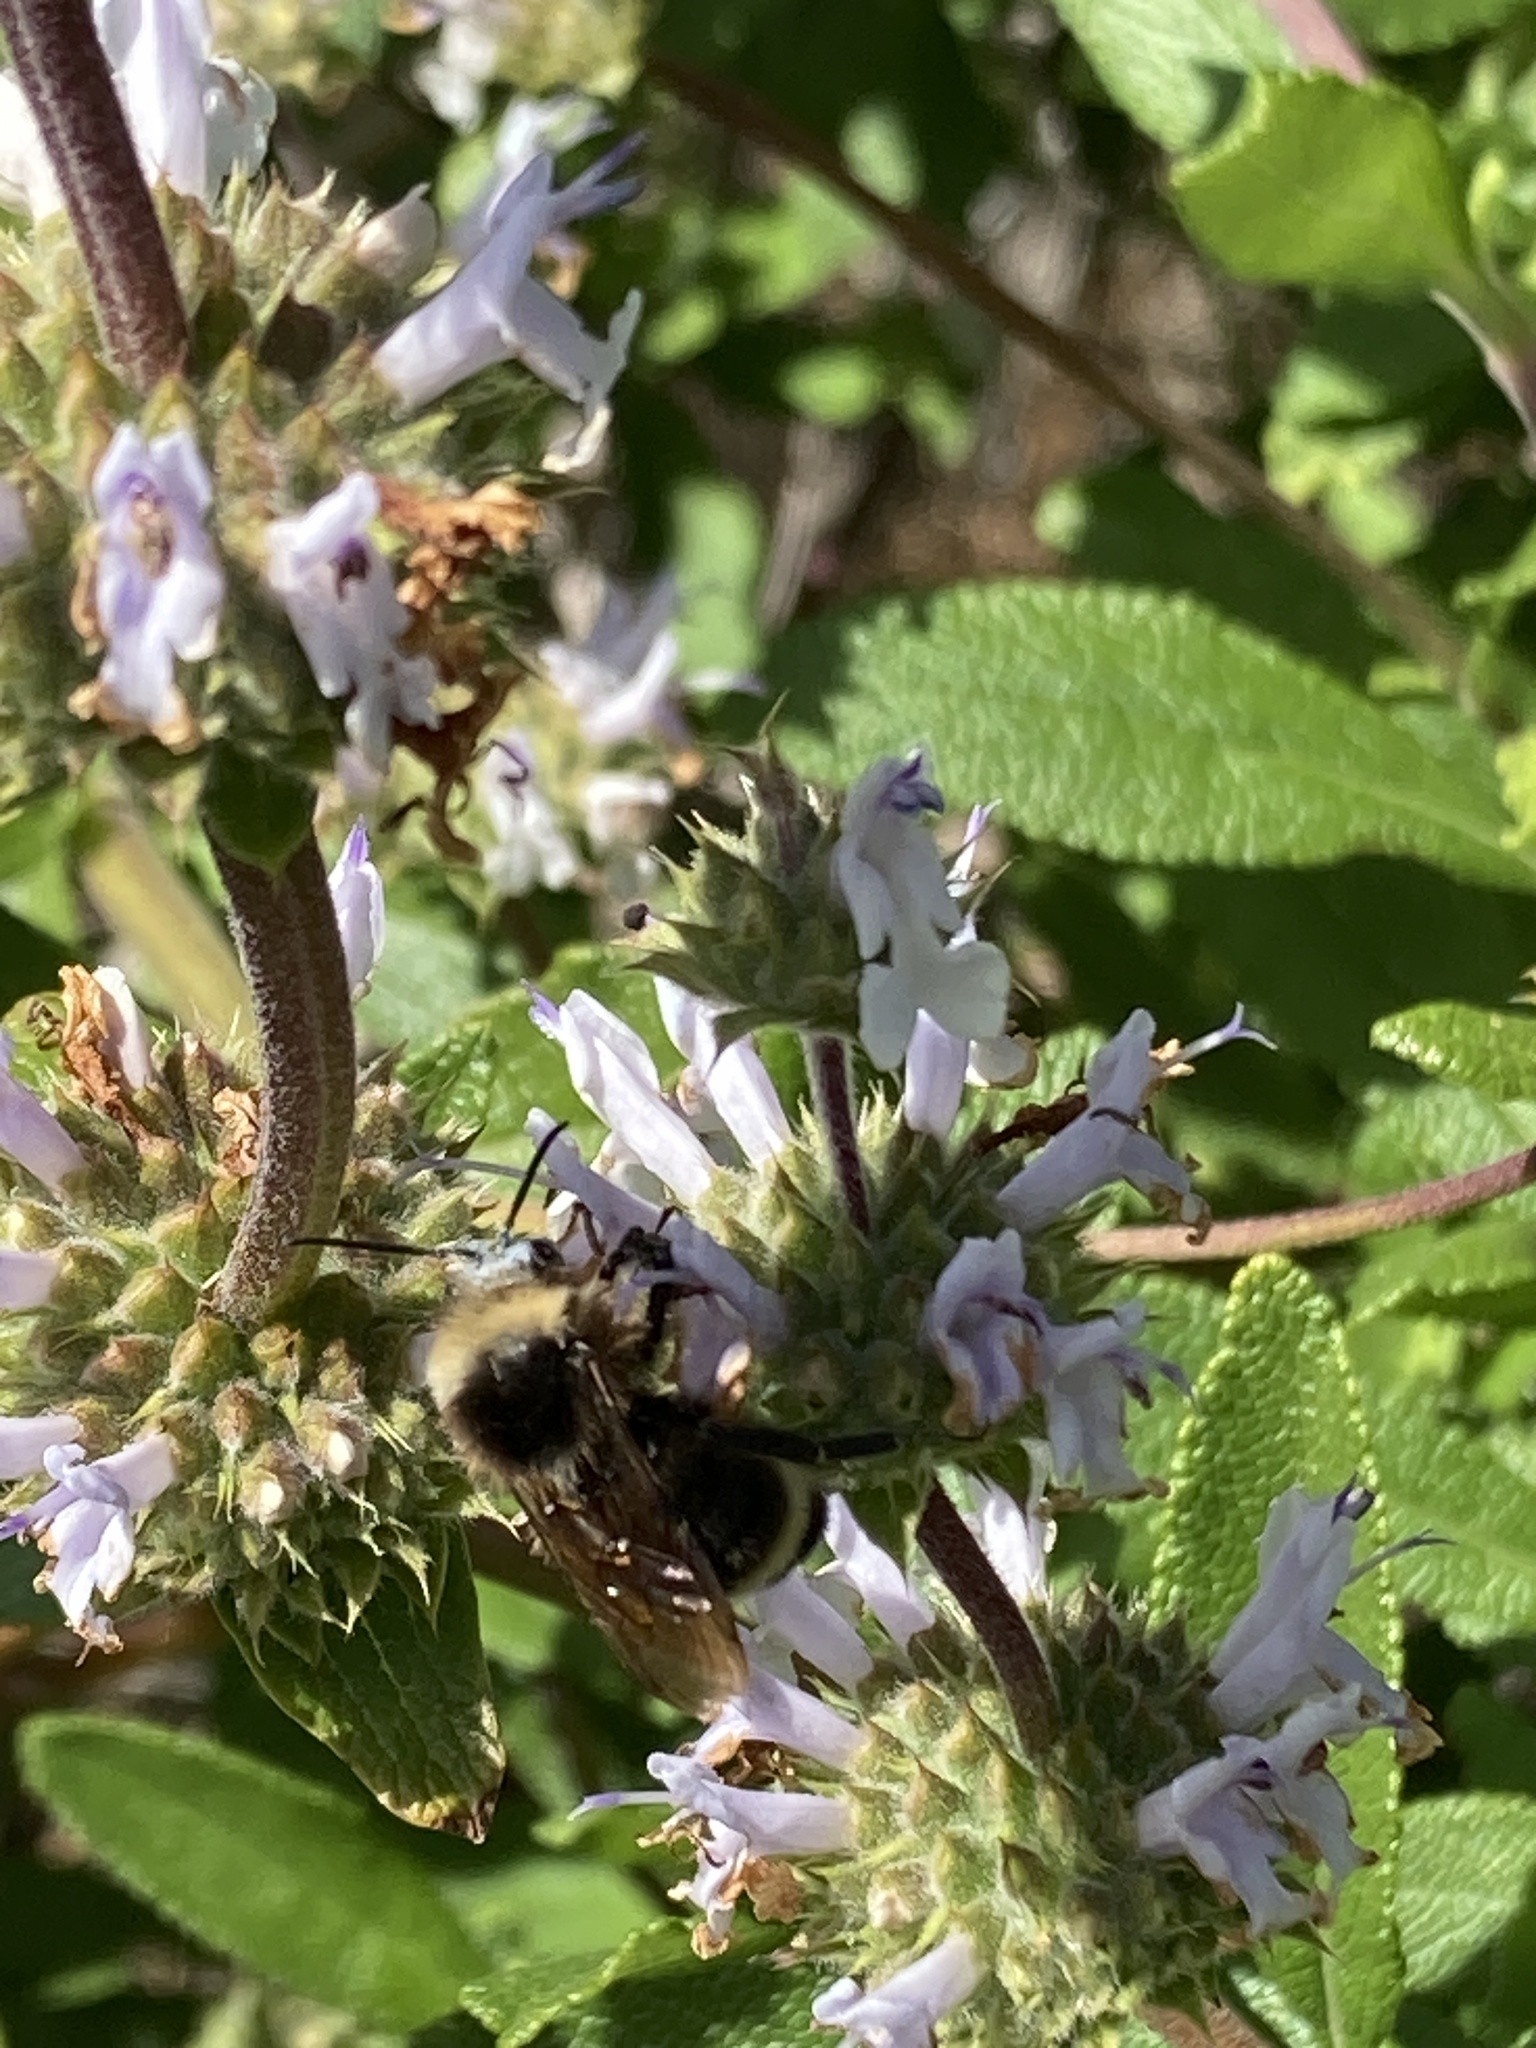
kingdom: Animalia
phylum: Arthropoda
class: Insecta
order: Hymenoptera
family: Apidae
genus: Bombus
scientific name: Bombus vosnesenskii
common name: Vosnesensky bumble bee
